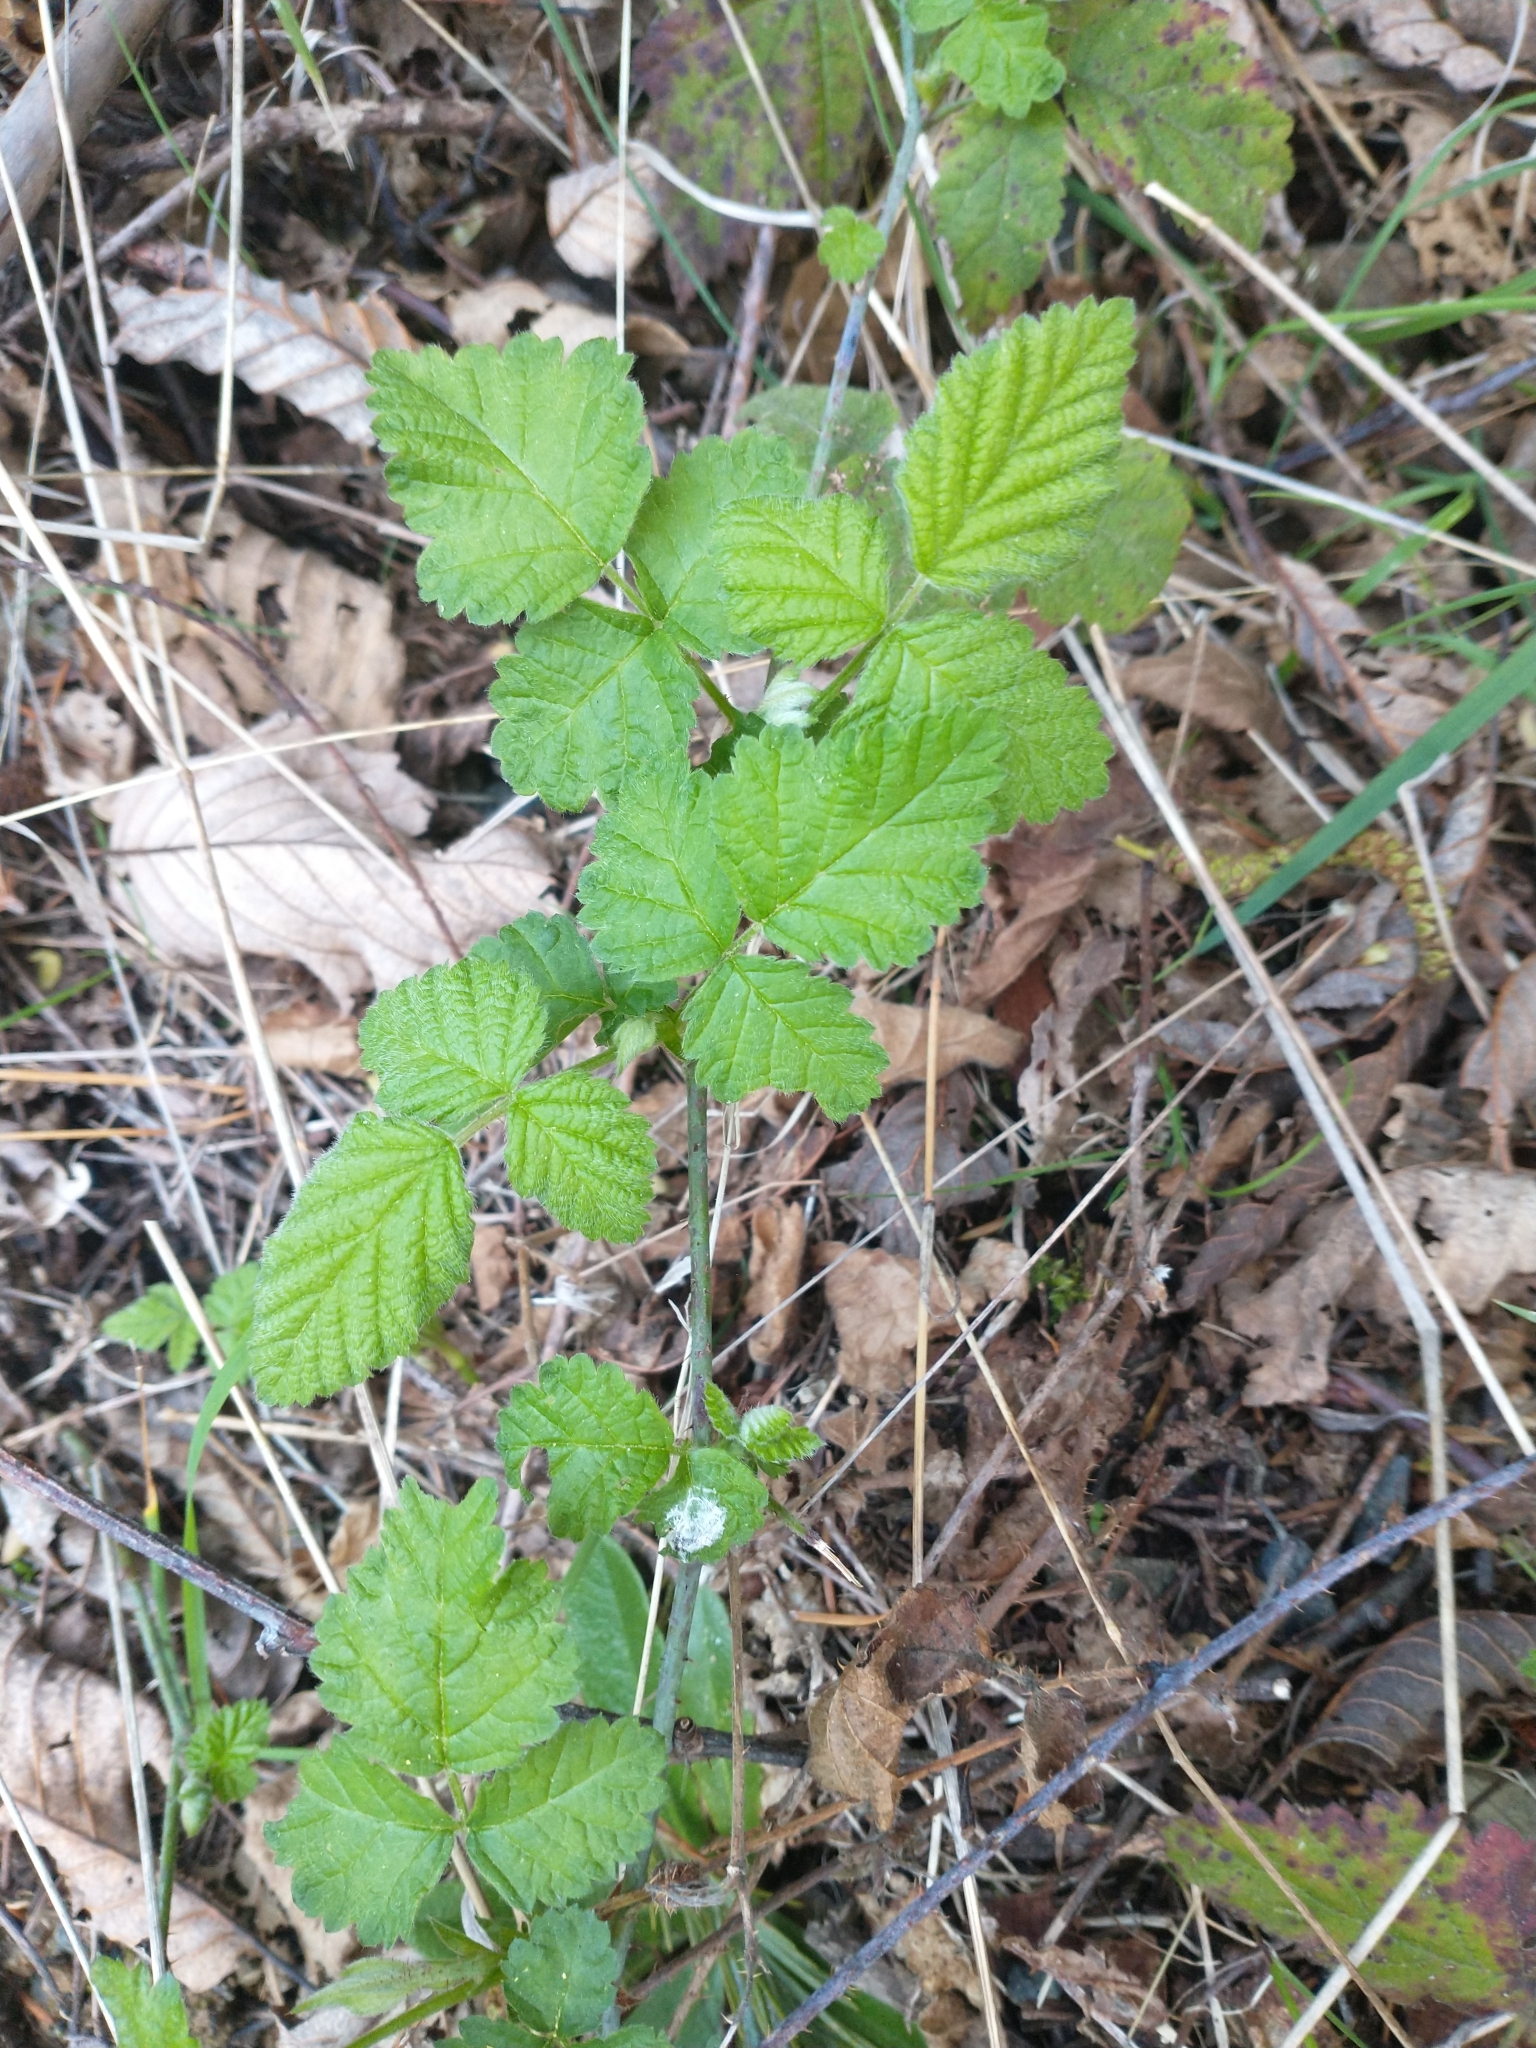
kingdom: Plantae
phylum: Tracheophyta
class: Magnoliopsida
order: Rosales
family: Rosaceae
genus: Rubus
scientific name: Rubus ursinus
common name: Pacific blackberry
